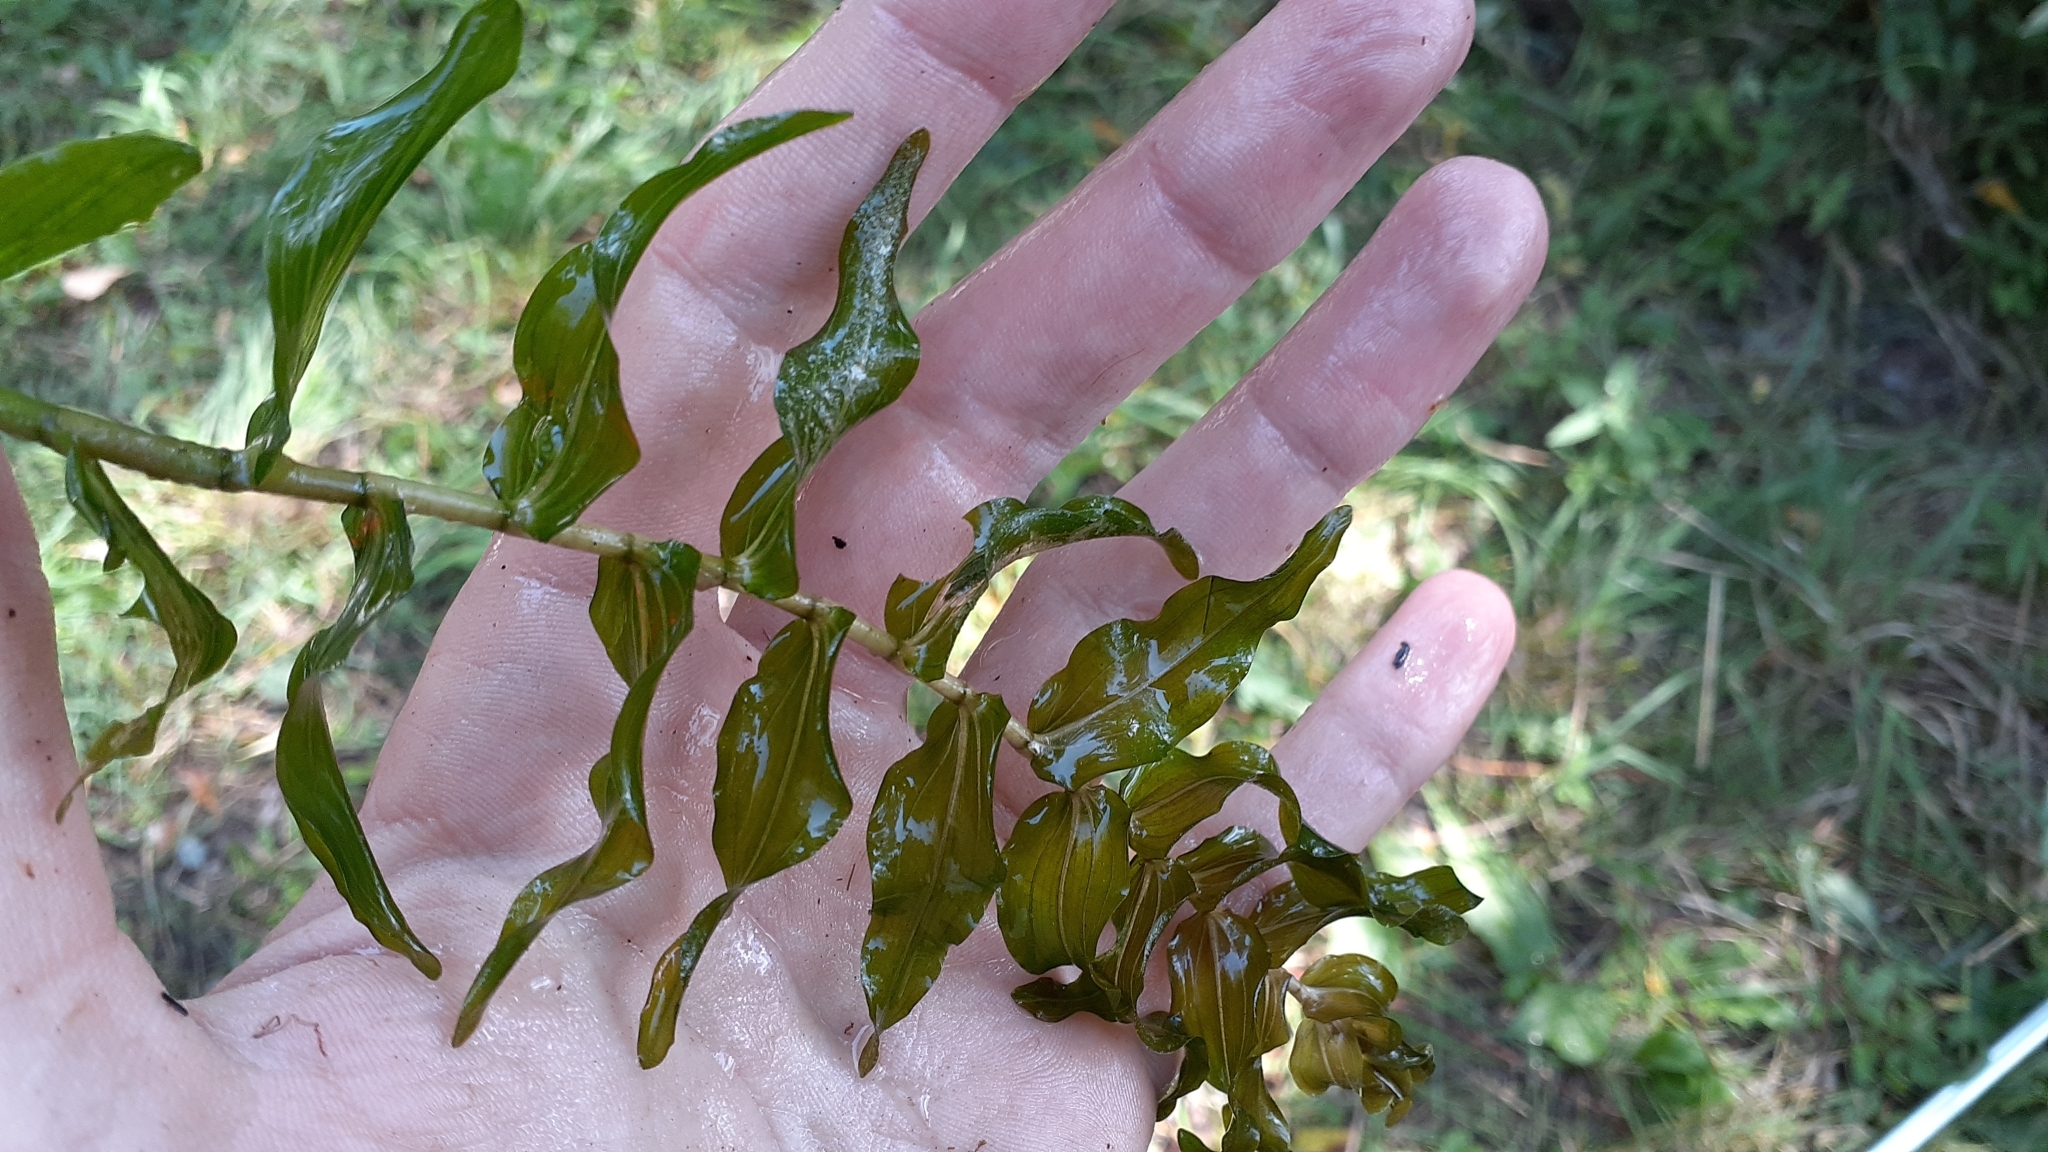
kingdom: Plantae
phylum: Tracheophyta
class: Liliopsida
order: Alismatales
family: Potamogetonaceae
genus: Potamogeton
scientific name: Potamogeton richardsonii
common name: Richardson's pondweed
